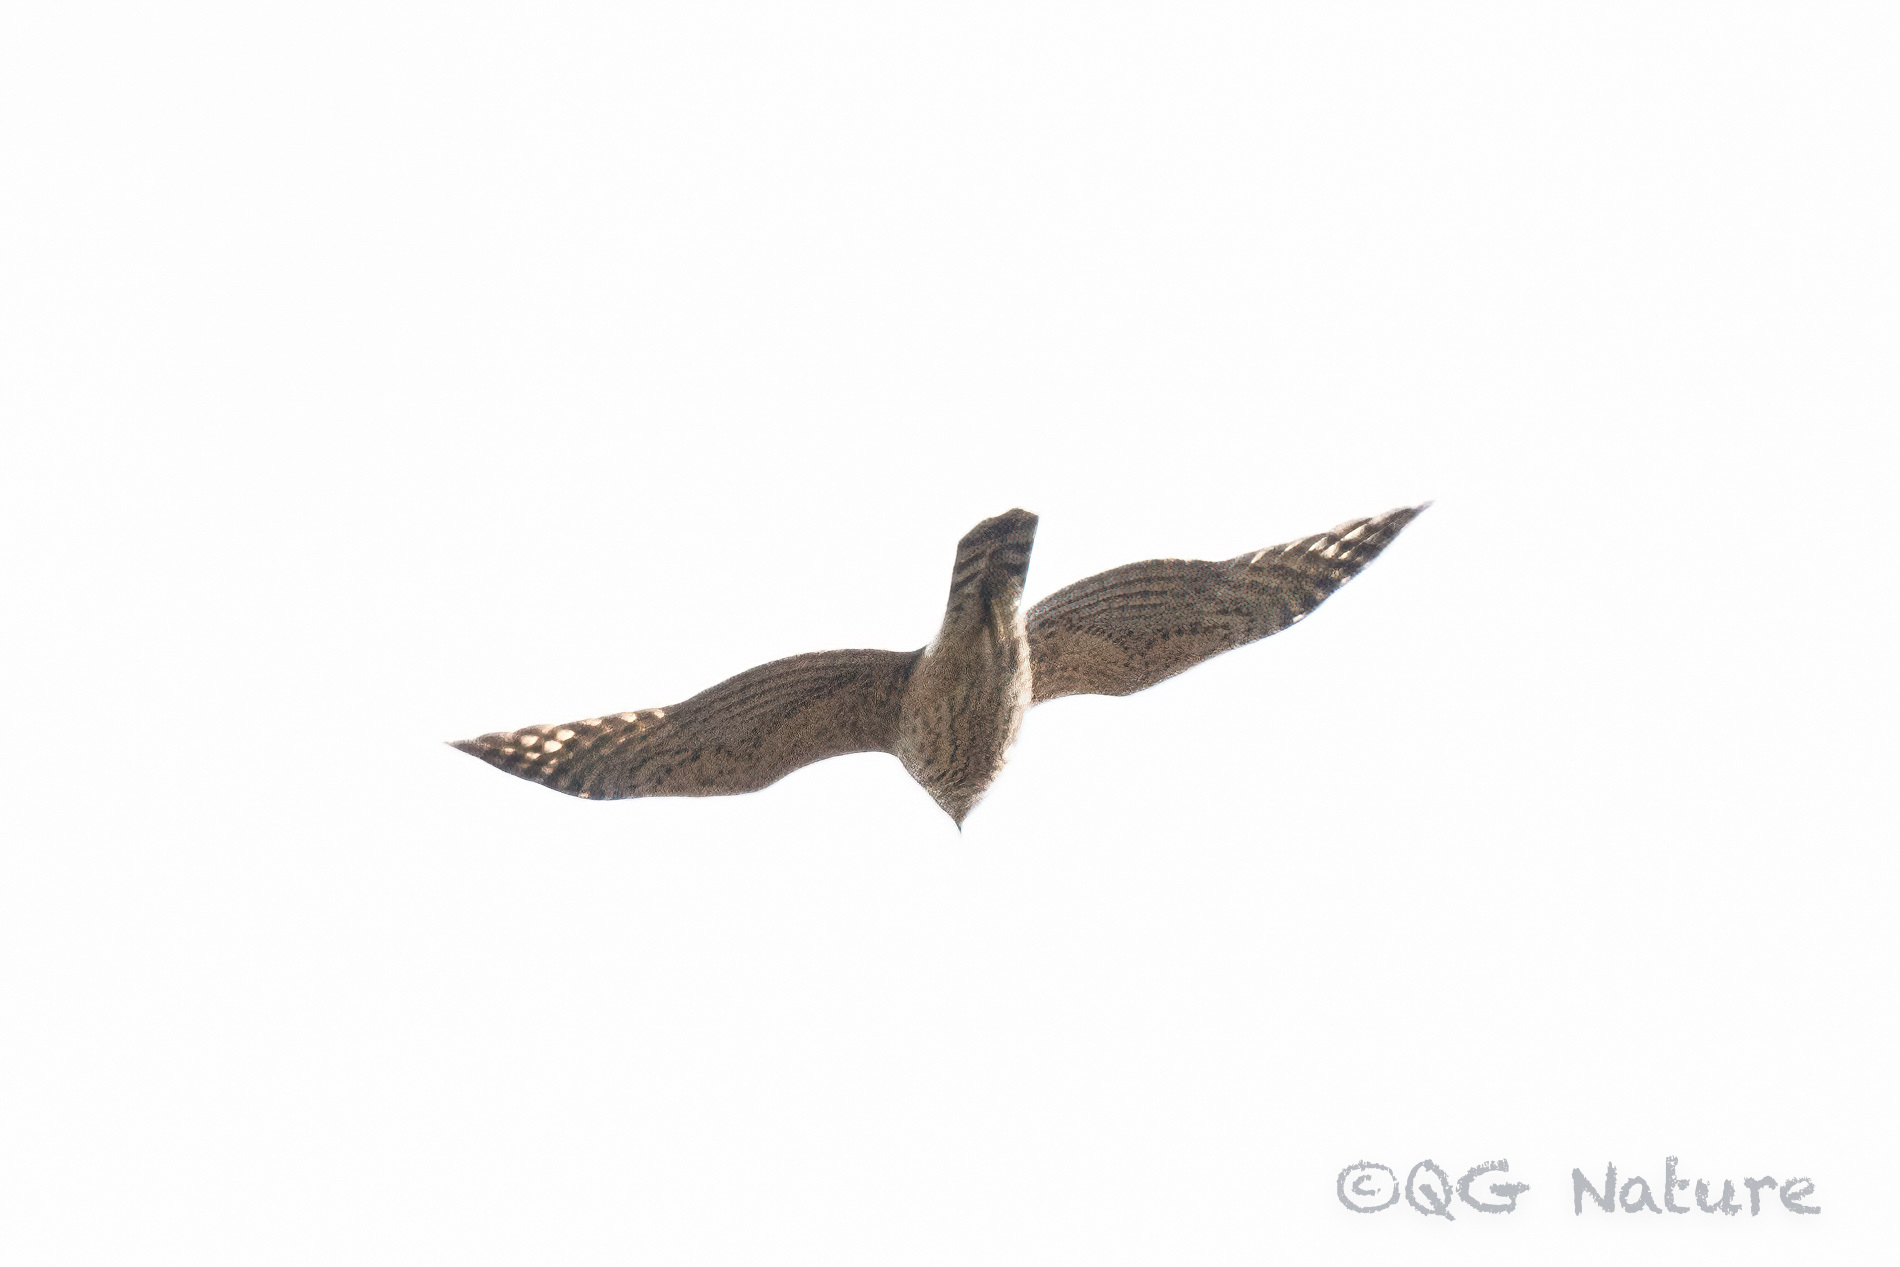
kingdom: Animalia
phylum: Chordata
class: Aves
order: Accipitriformes
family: Accipitridae
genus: Accipiter
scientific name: Accipiter gentilis
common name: Northern goshawk
